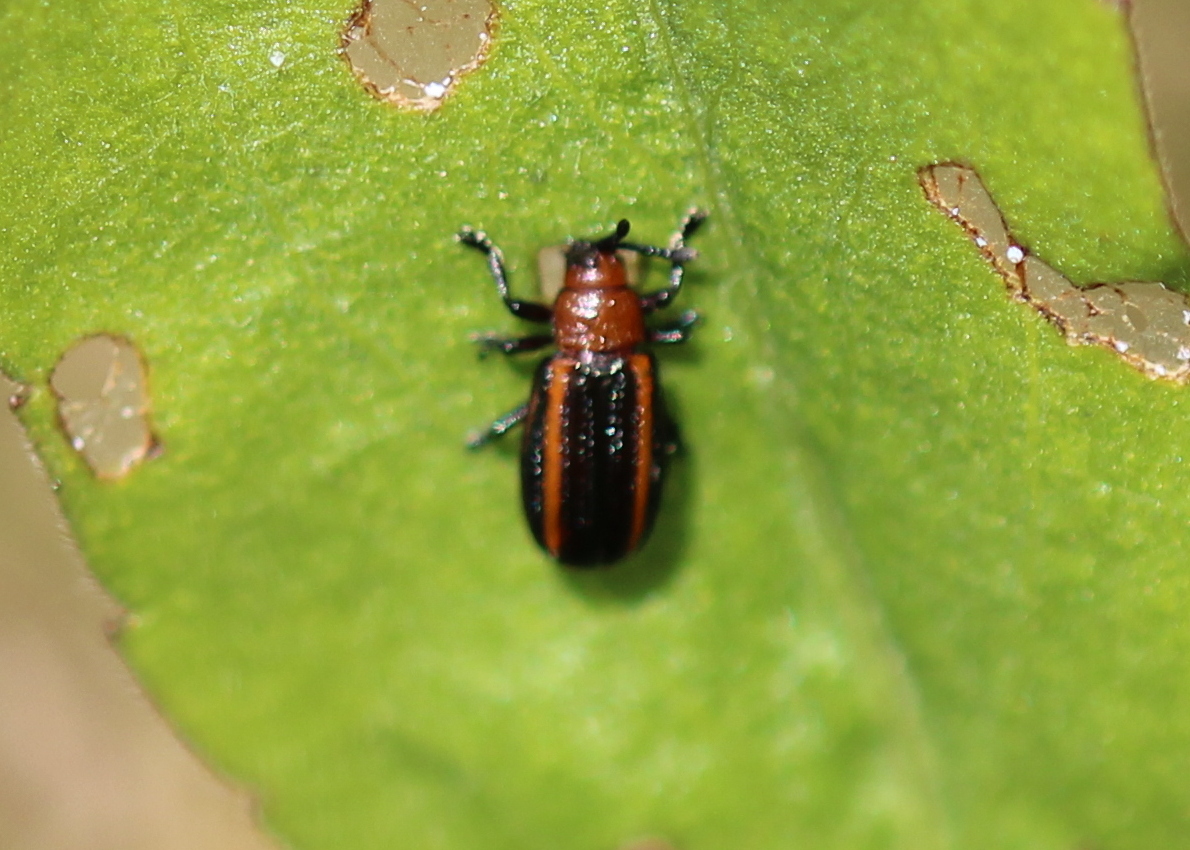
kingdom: Animalia
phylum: Arthropoda
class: Insecta
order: Coleoptera
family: Chrysomelidae
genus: Microrhopala
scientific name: Microrhopala vittata
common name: Goldenrod leaf miner beetle
